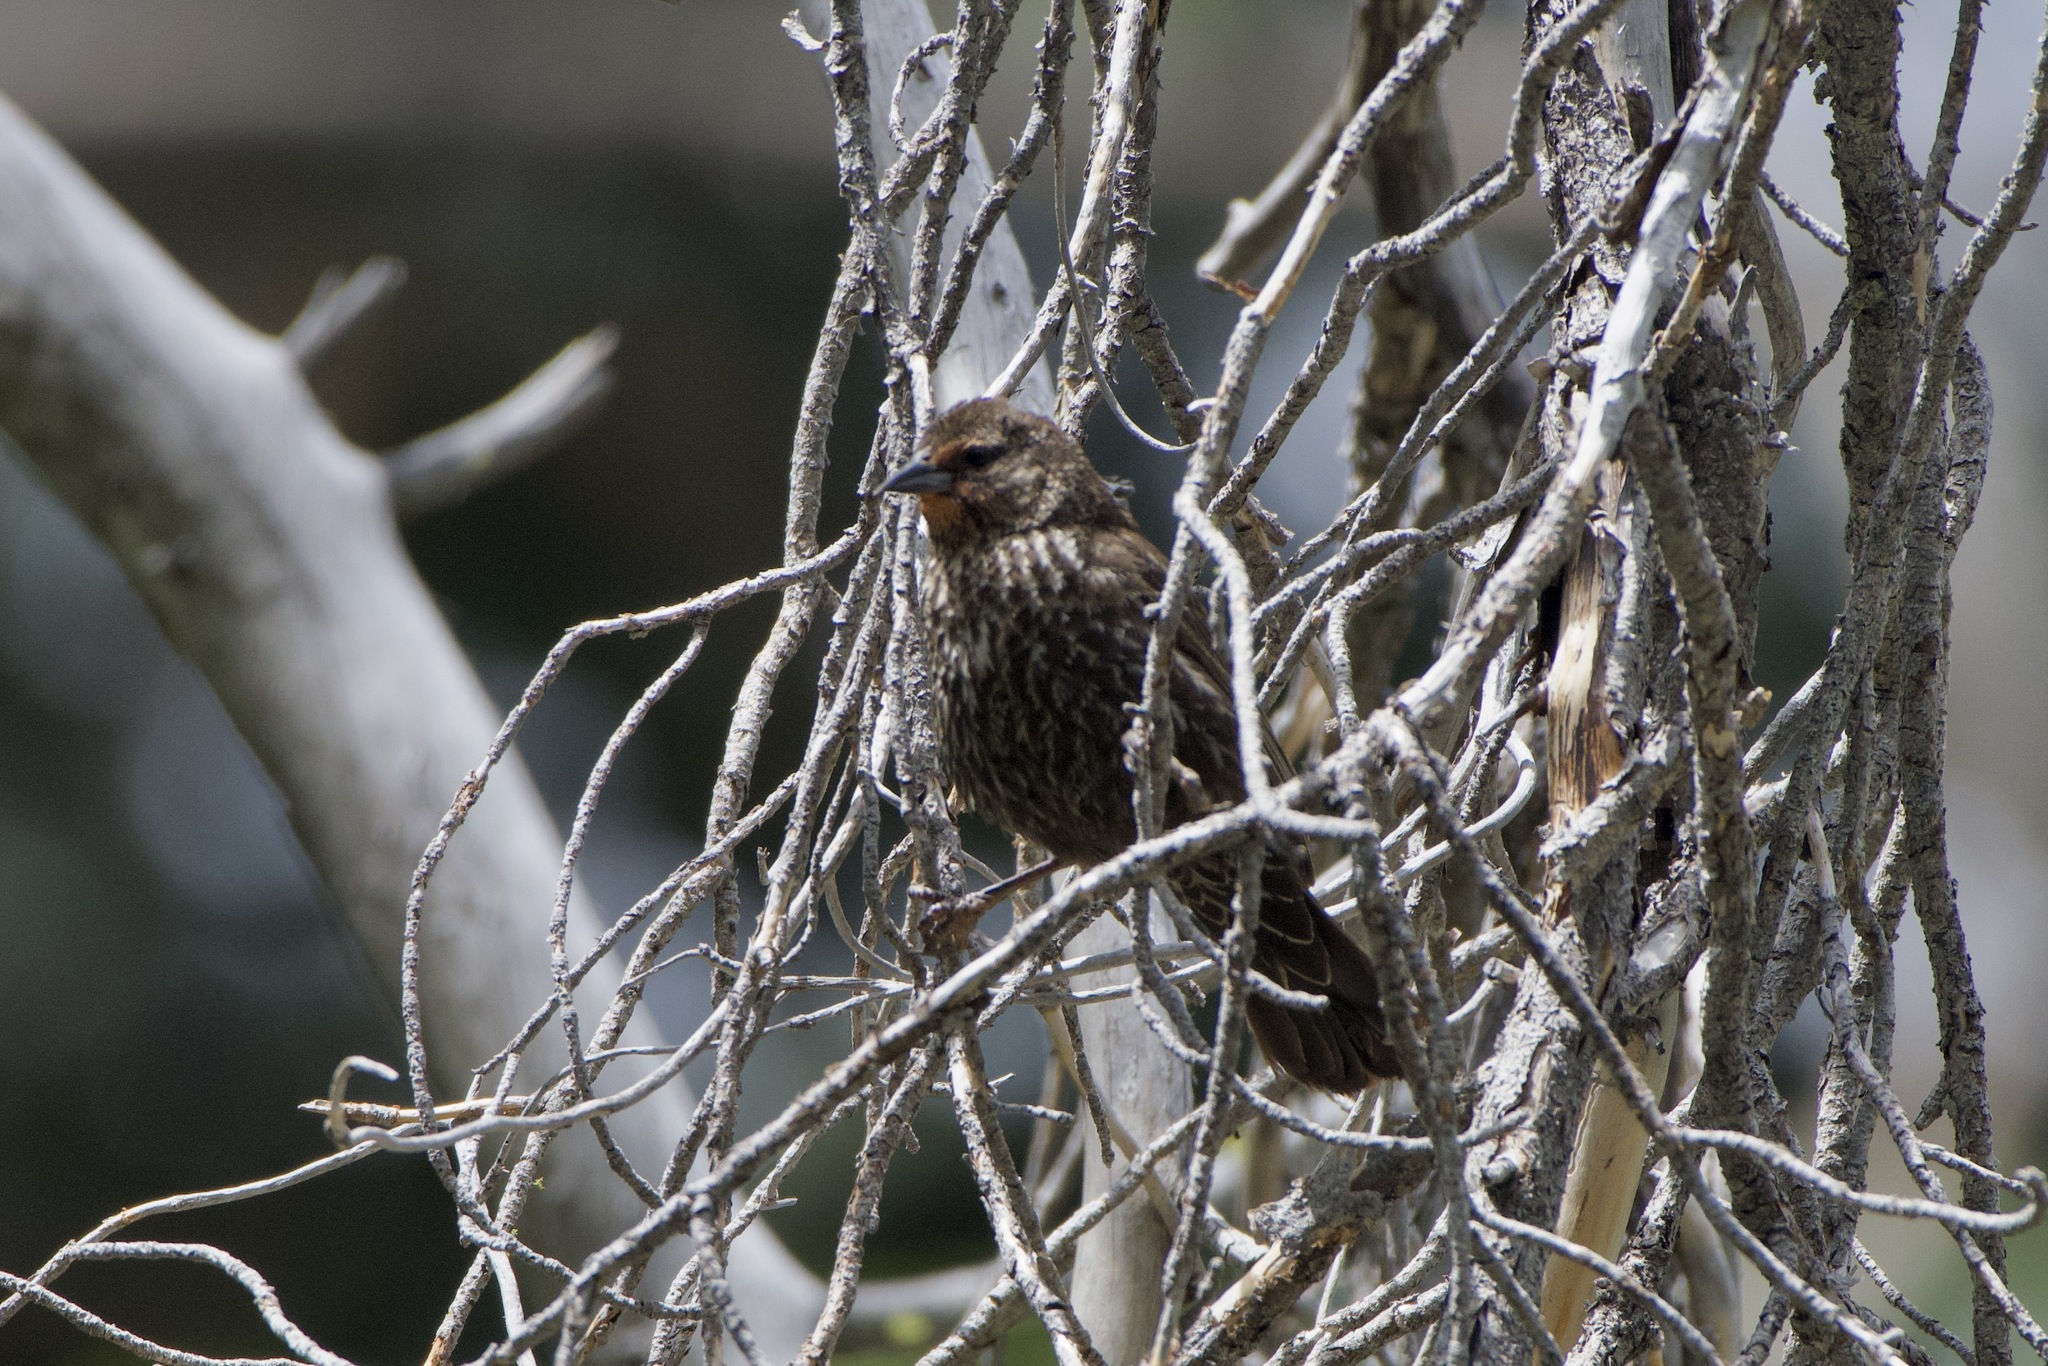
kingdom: Animalia
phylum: Chordata
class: Aves
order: Passeriformes
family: Icteridae
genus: Agelaius
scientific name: Agelaius phoeniceus
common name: Red-winged blackbird
